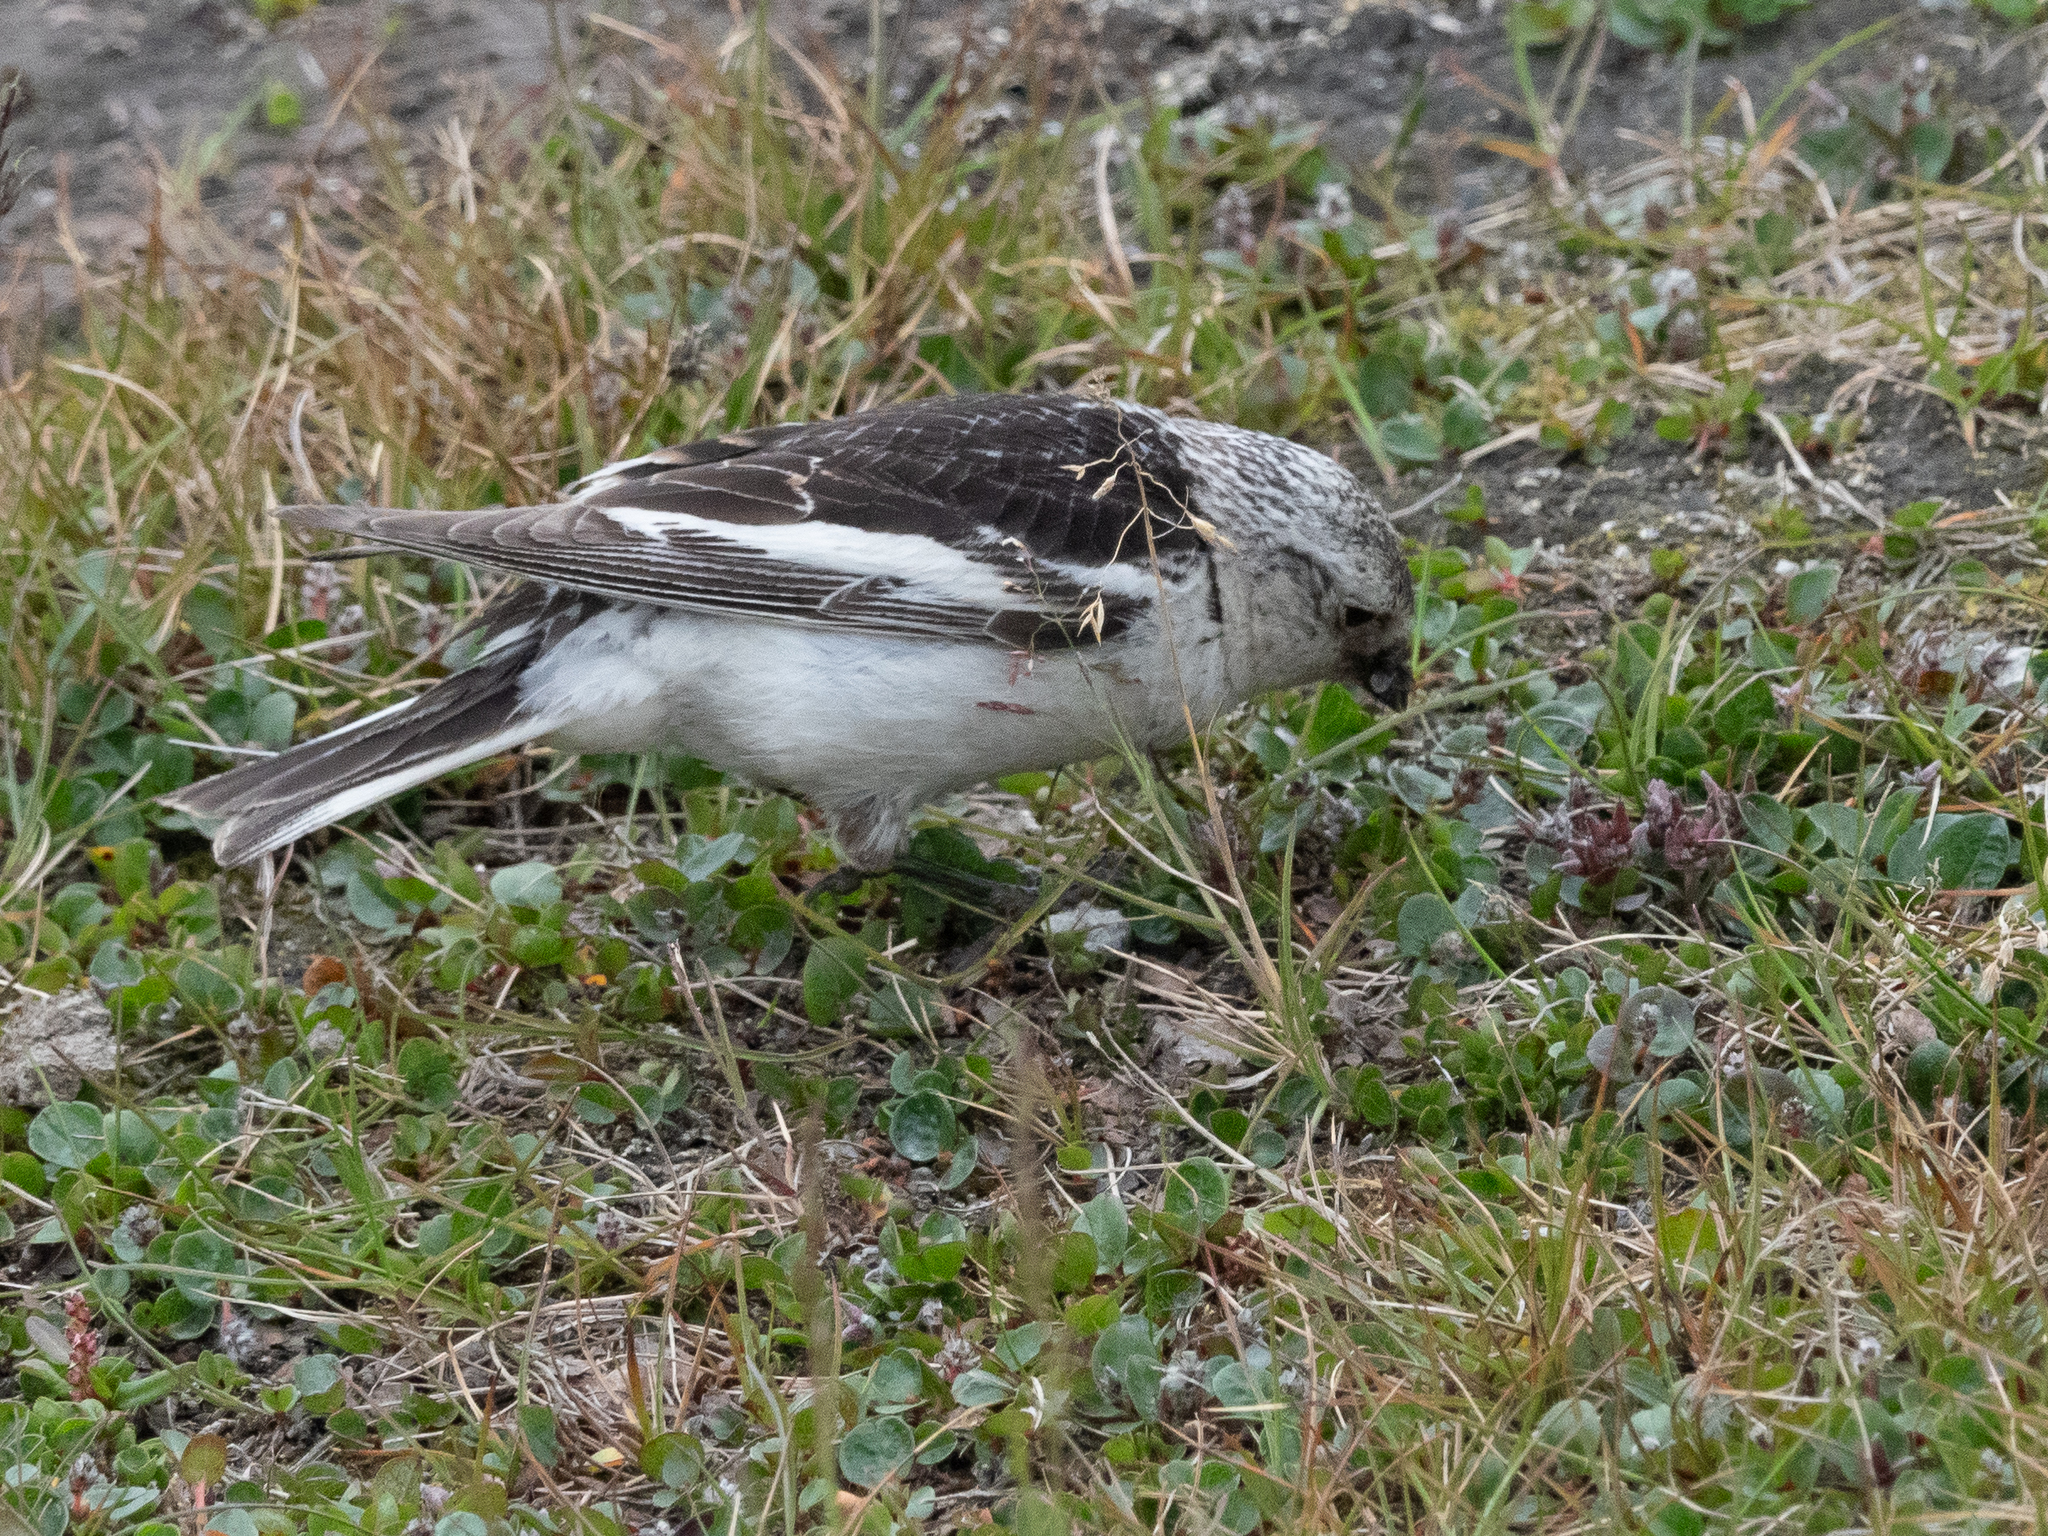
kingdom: Animalia
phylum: Chordata
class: Aves
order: Passeriformes
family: Calcariidae
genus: Plectrophenax
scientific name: Plectrophenax nivalis
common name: Snow bunting
